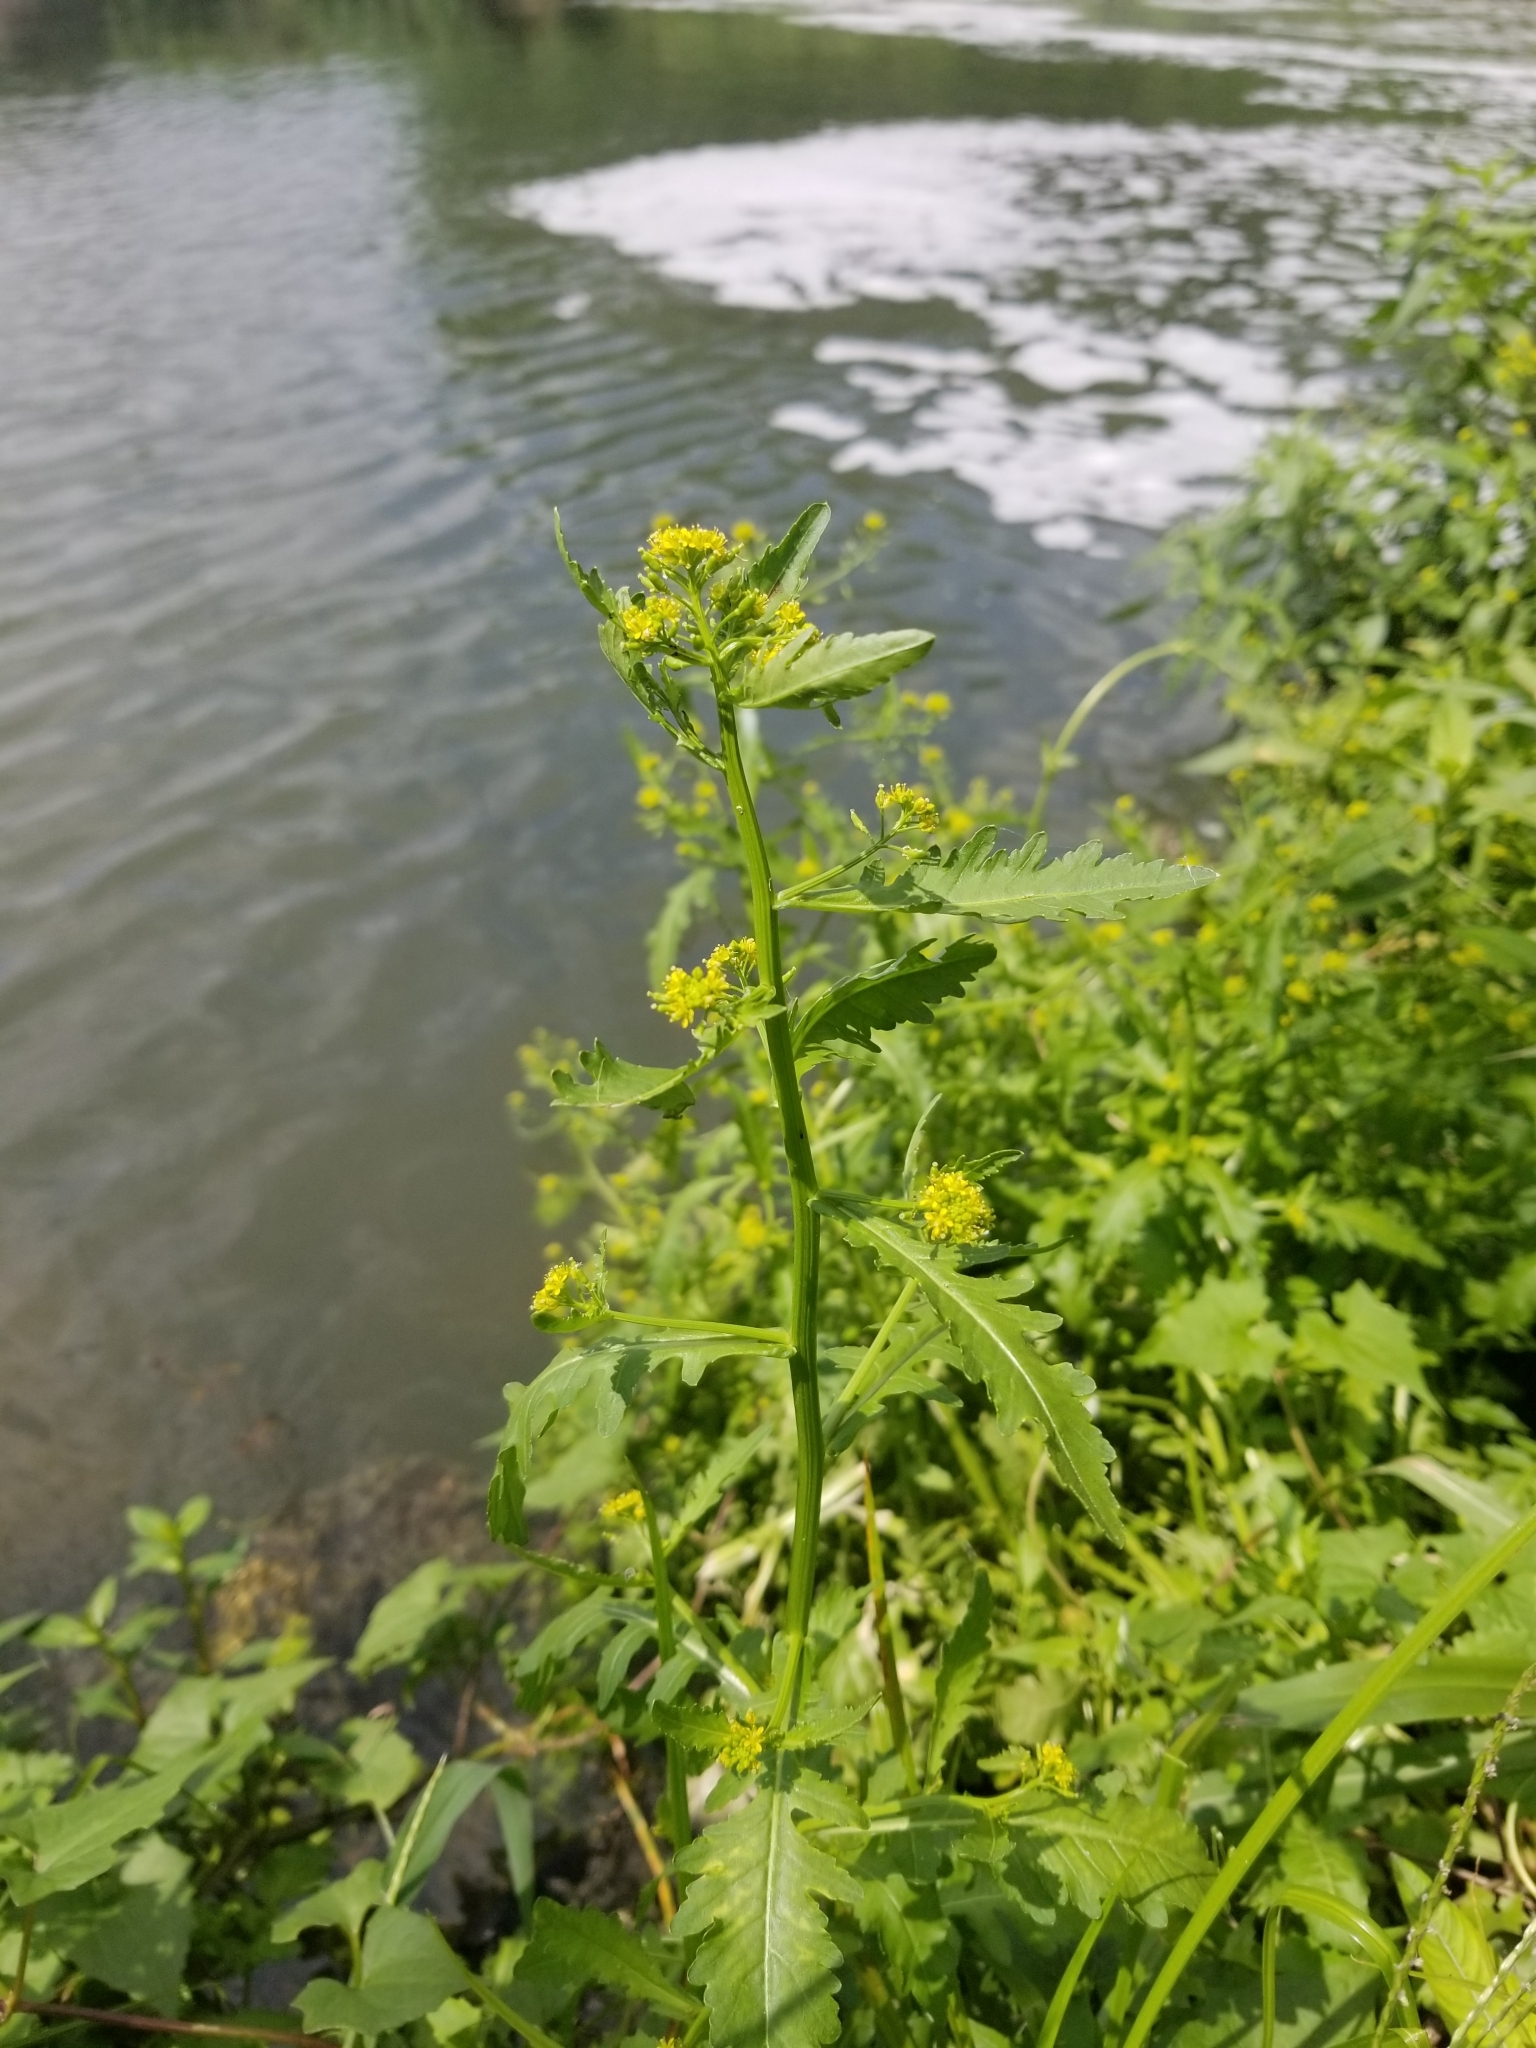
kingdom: Plantae
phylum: Tracheophyta
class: Magnoliopsida
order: Brassicales
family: Brassicaceae
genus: Rorippa
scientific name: Rorippa palustris
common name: Marsh yellow-cress
